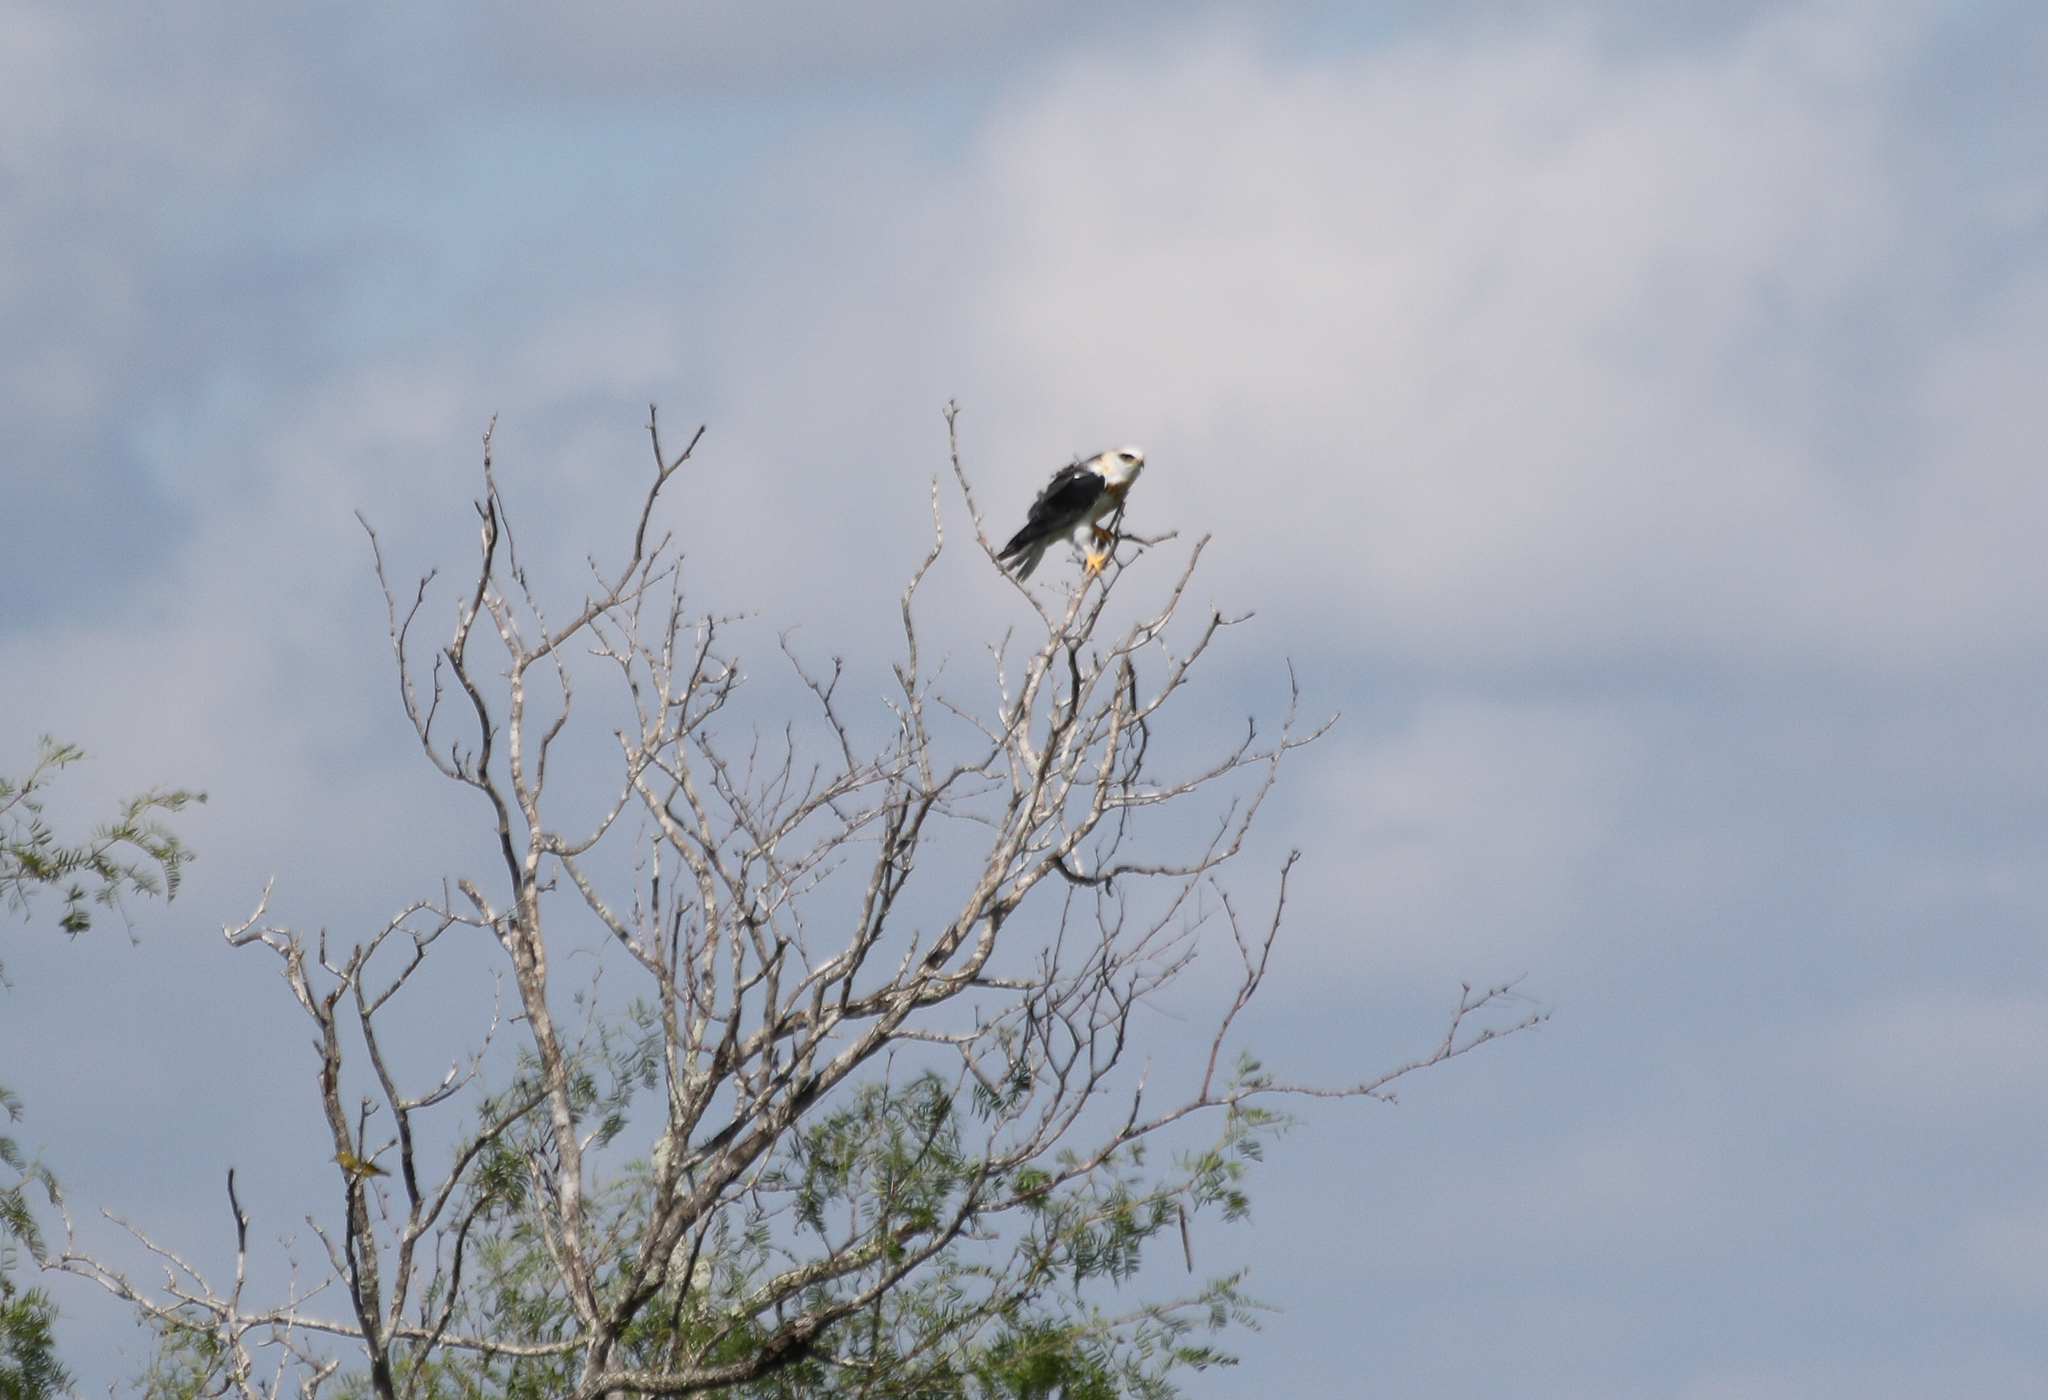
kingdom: Animalia
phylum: Chordata
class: Aves
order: Accipitriformes
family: Accipitridae
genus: Elanus
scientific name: Elanus leucurus
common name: White-tailed kite
